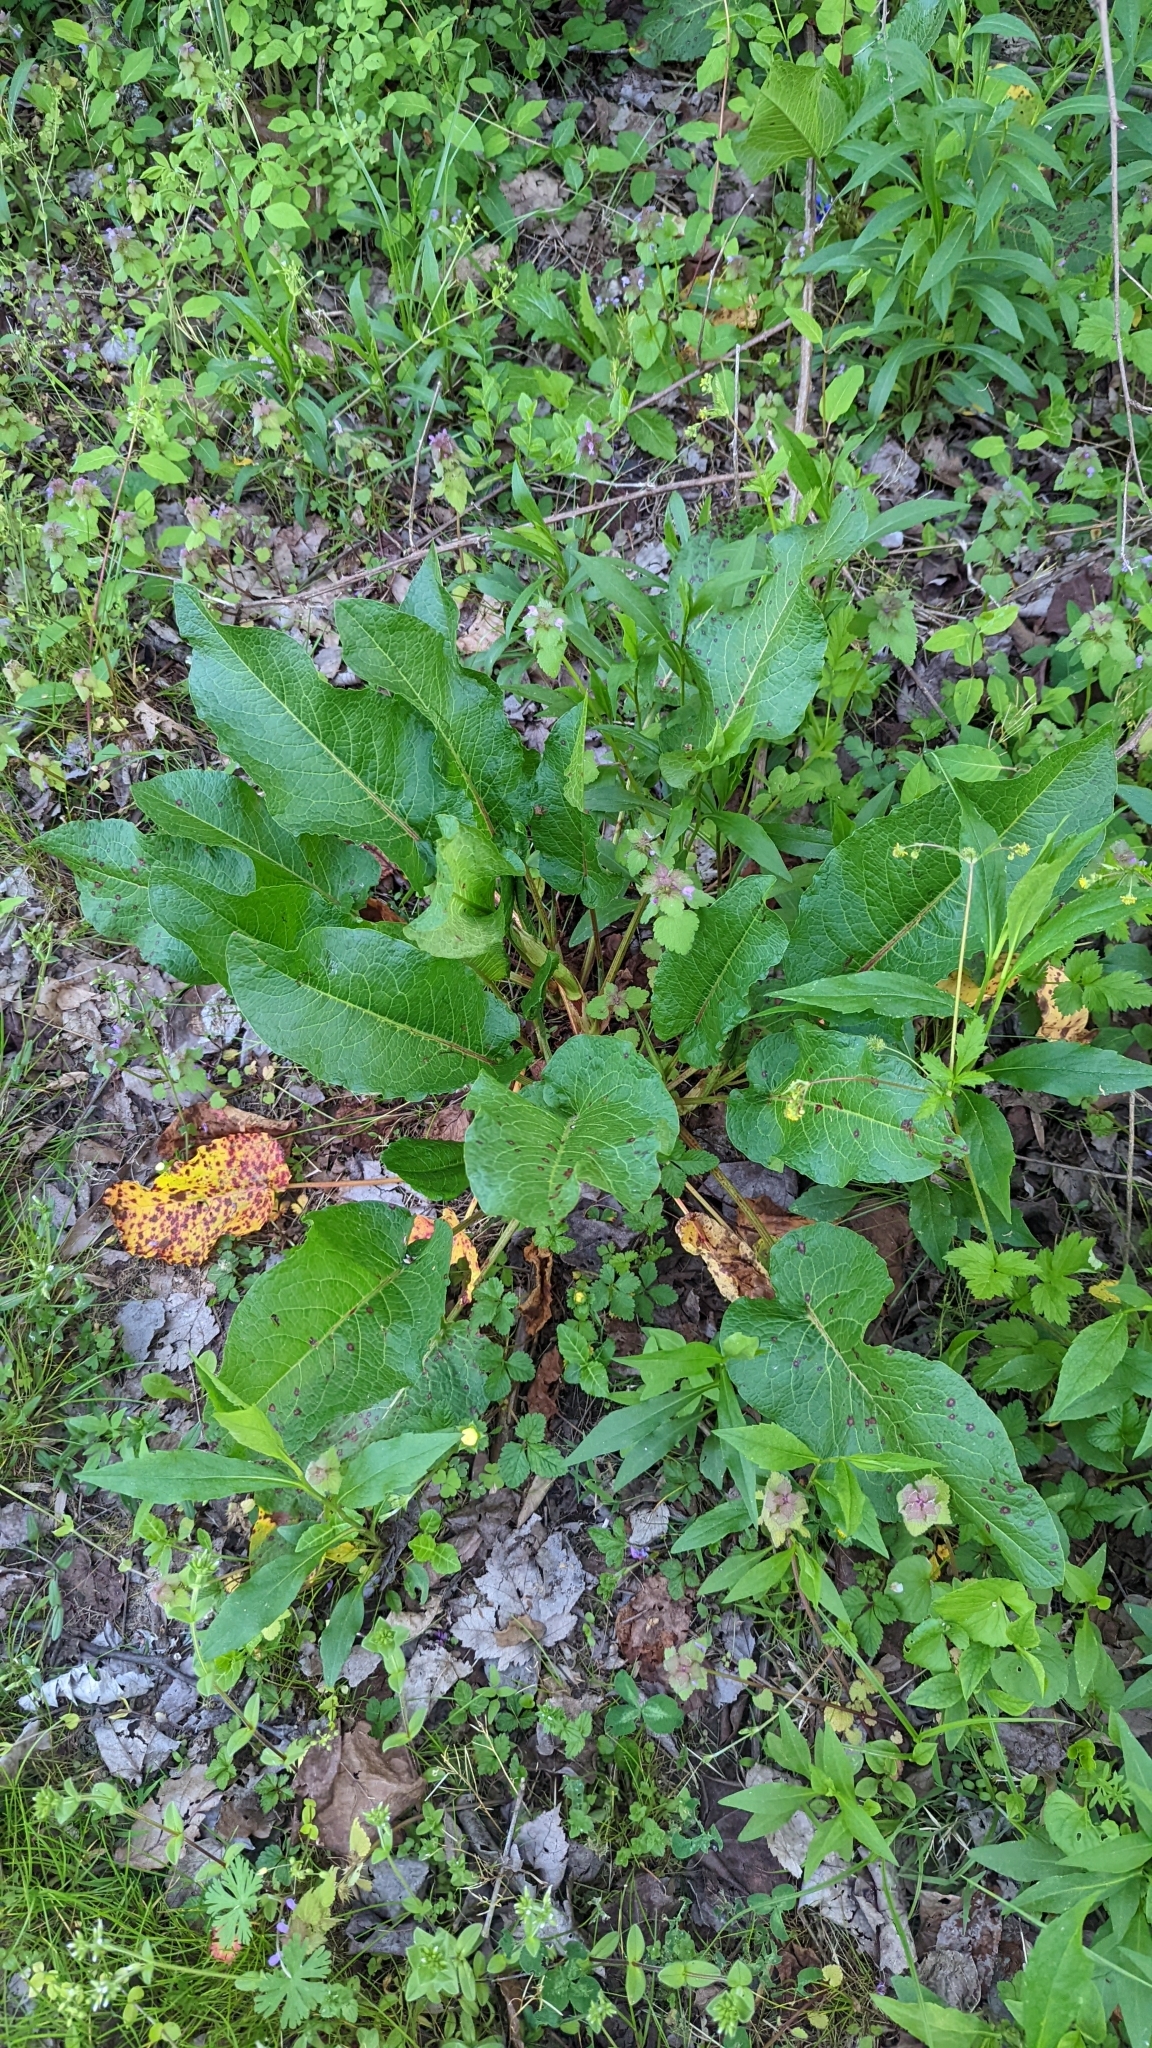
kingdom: Plantae
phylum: Tracheophyta
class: Magnoliopsida
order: Caryophyllales
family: Polygonaceae
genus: Rumex
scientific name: Rumex obtusifolius
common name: Bitter dock
